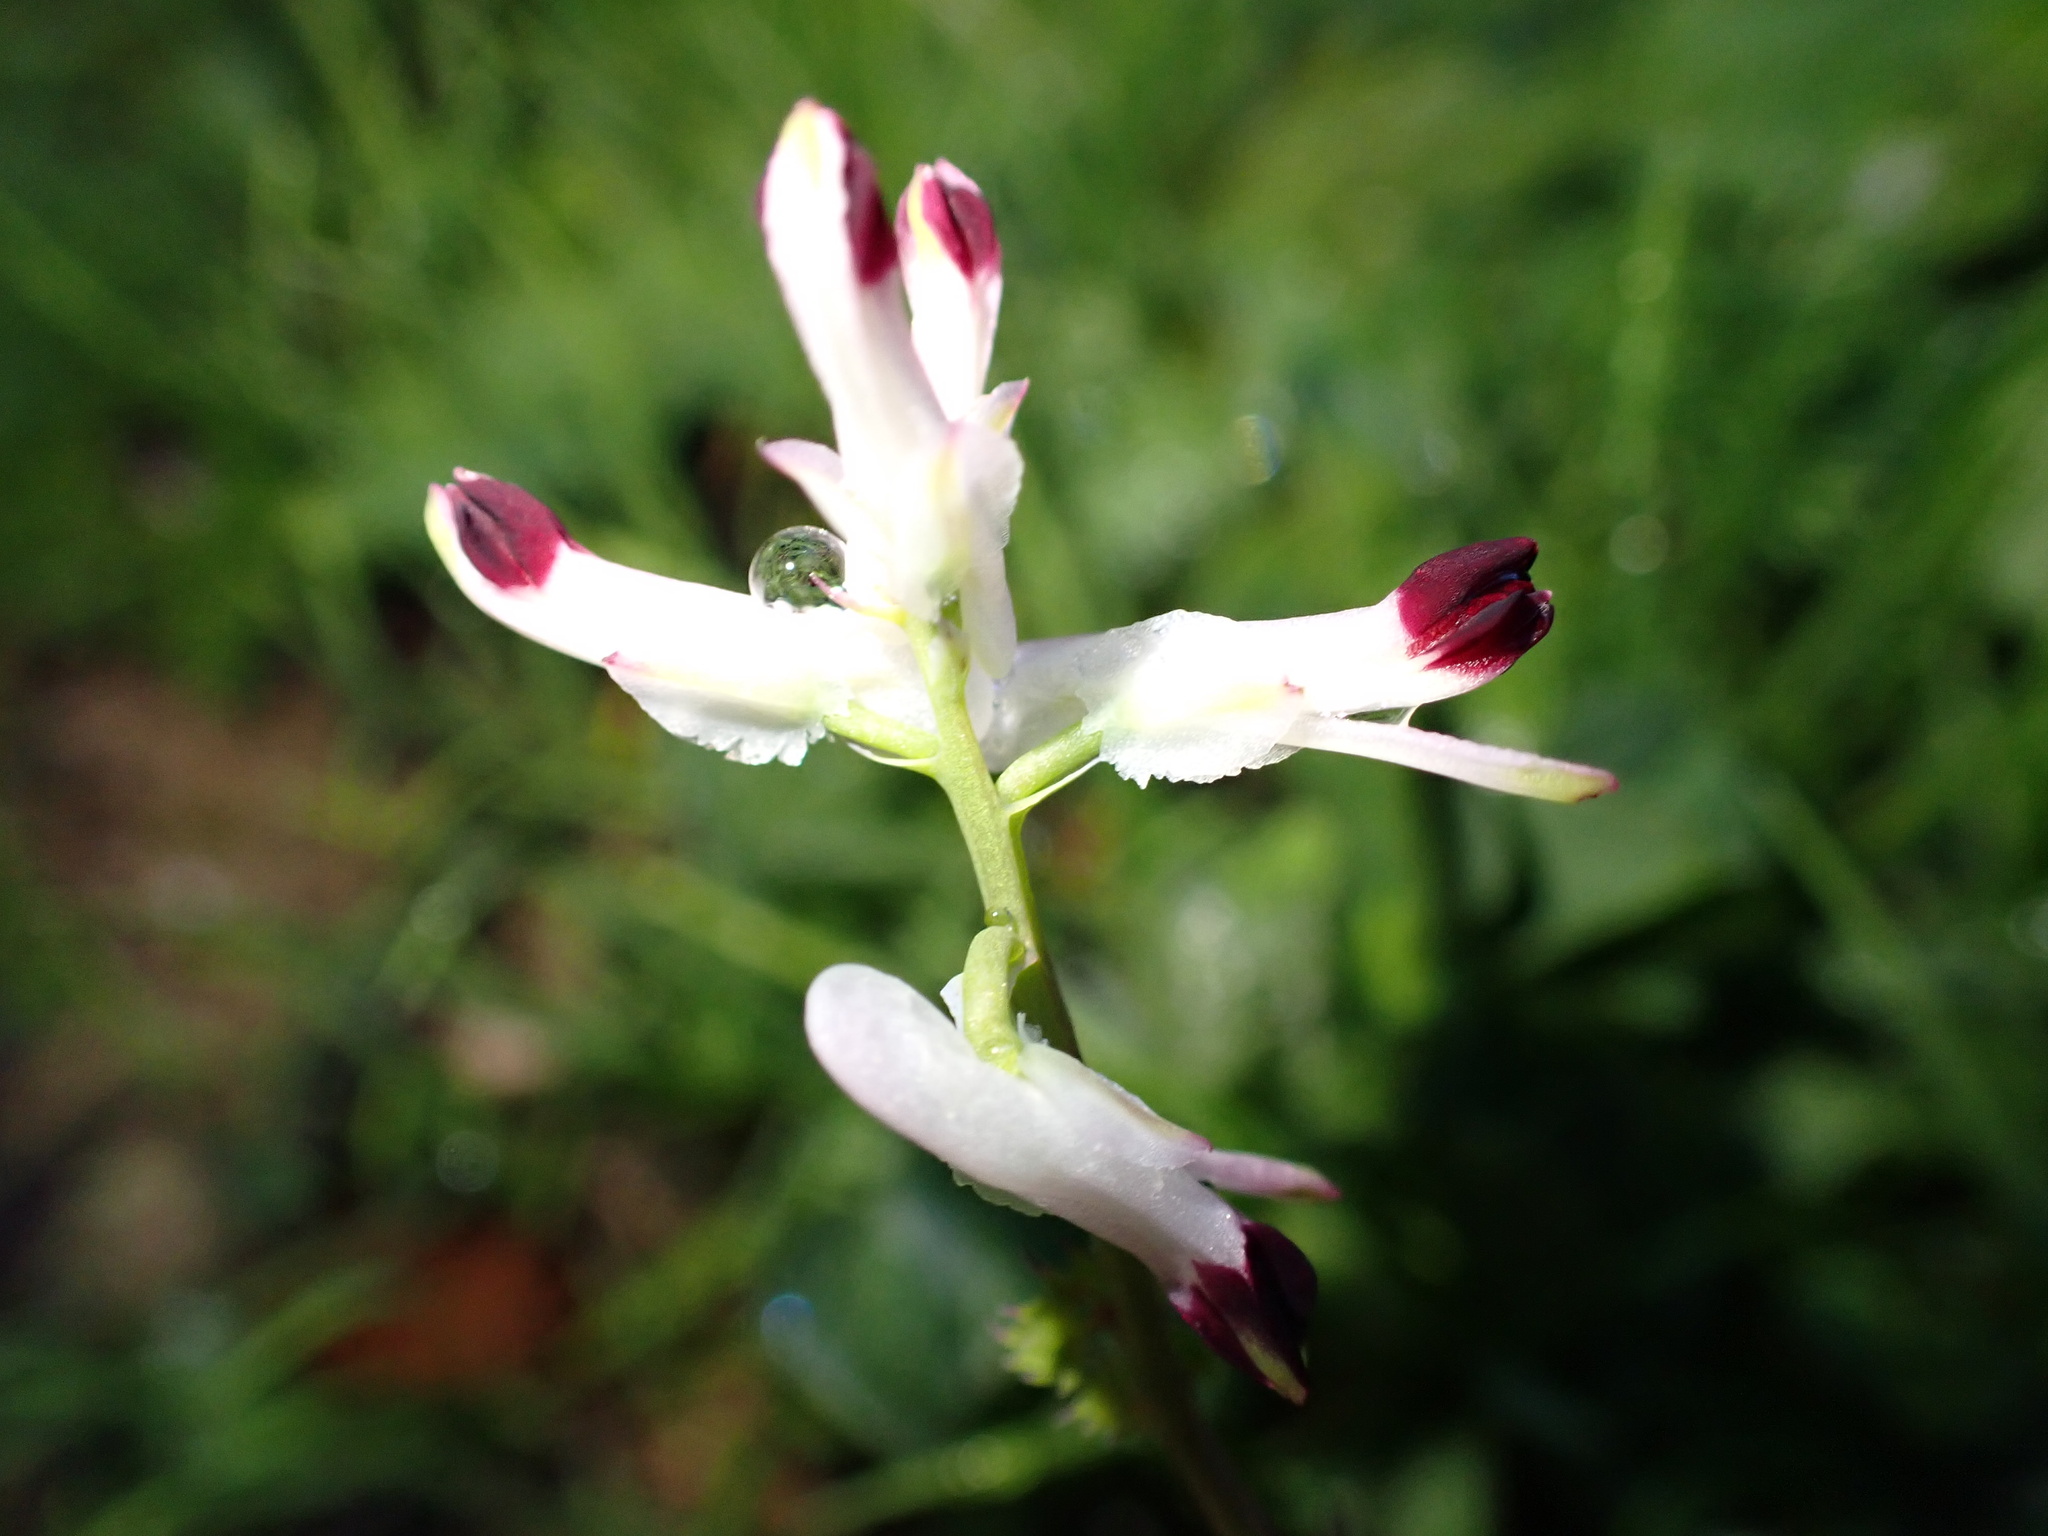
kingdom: Plantae
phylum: Tracheophyta
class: Magnoliopsida
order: Ranunculales
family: Papaveraceae
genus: Fumaria
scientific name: Fumaria capreolata
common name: White ramping-fumitory
